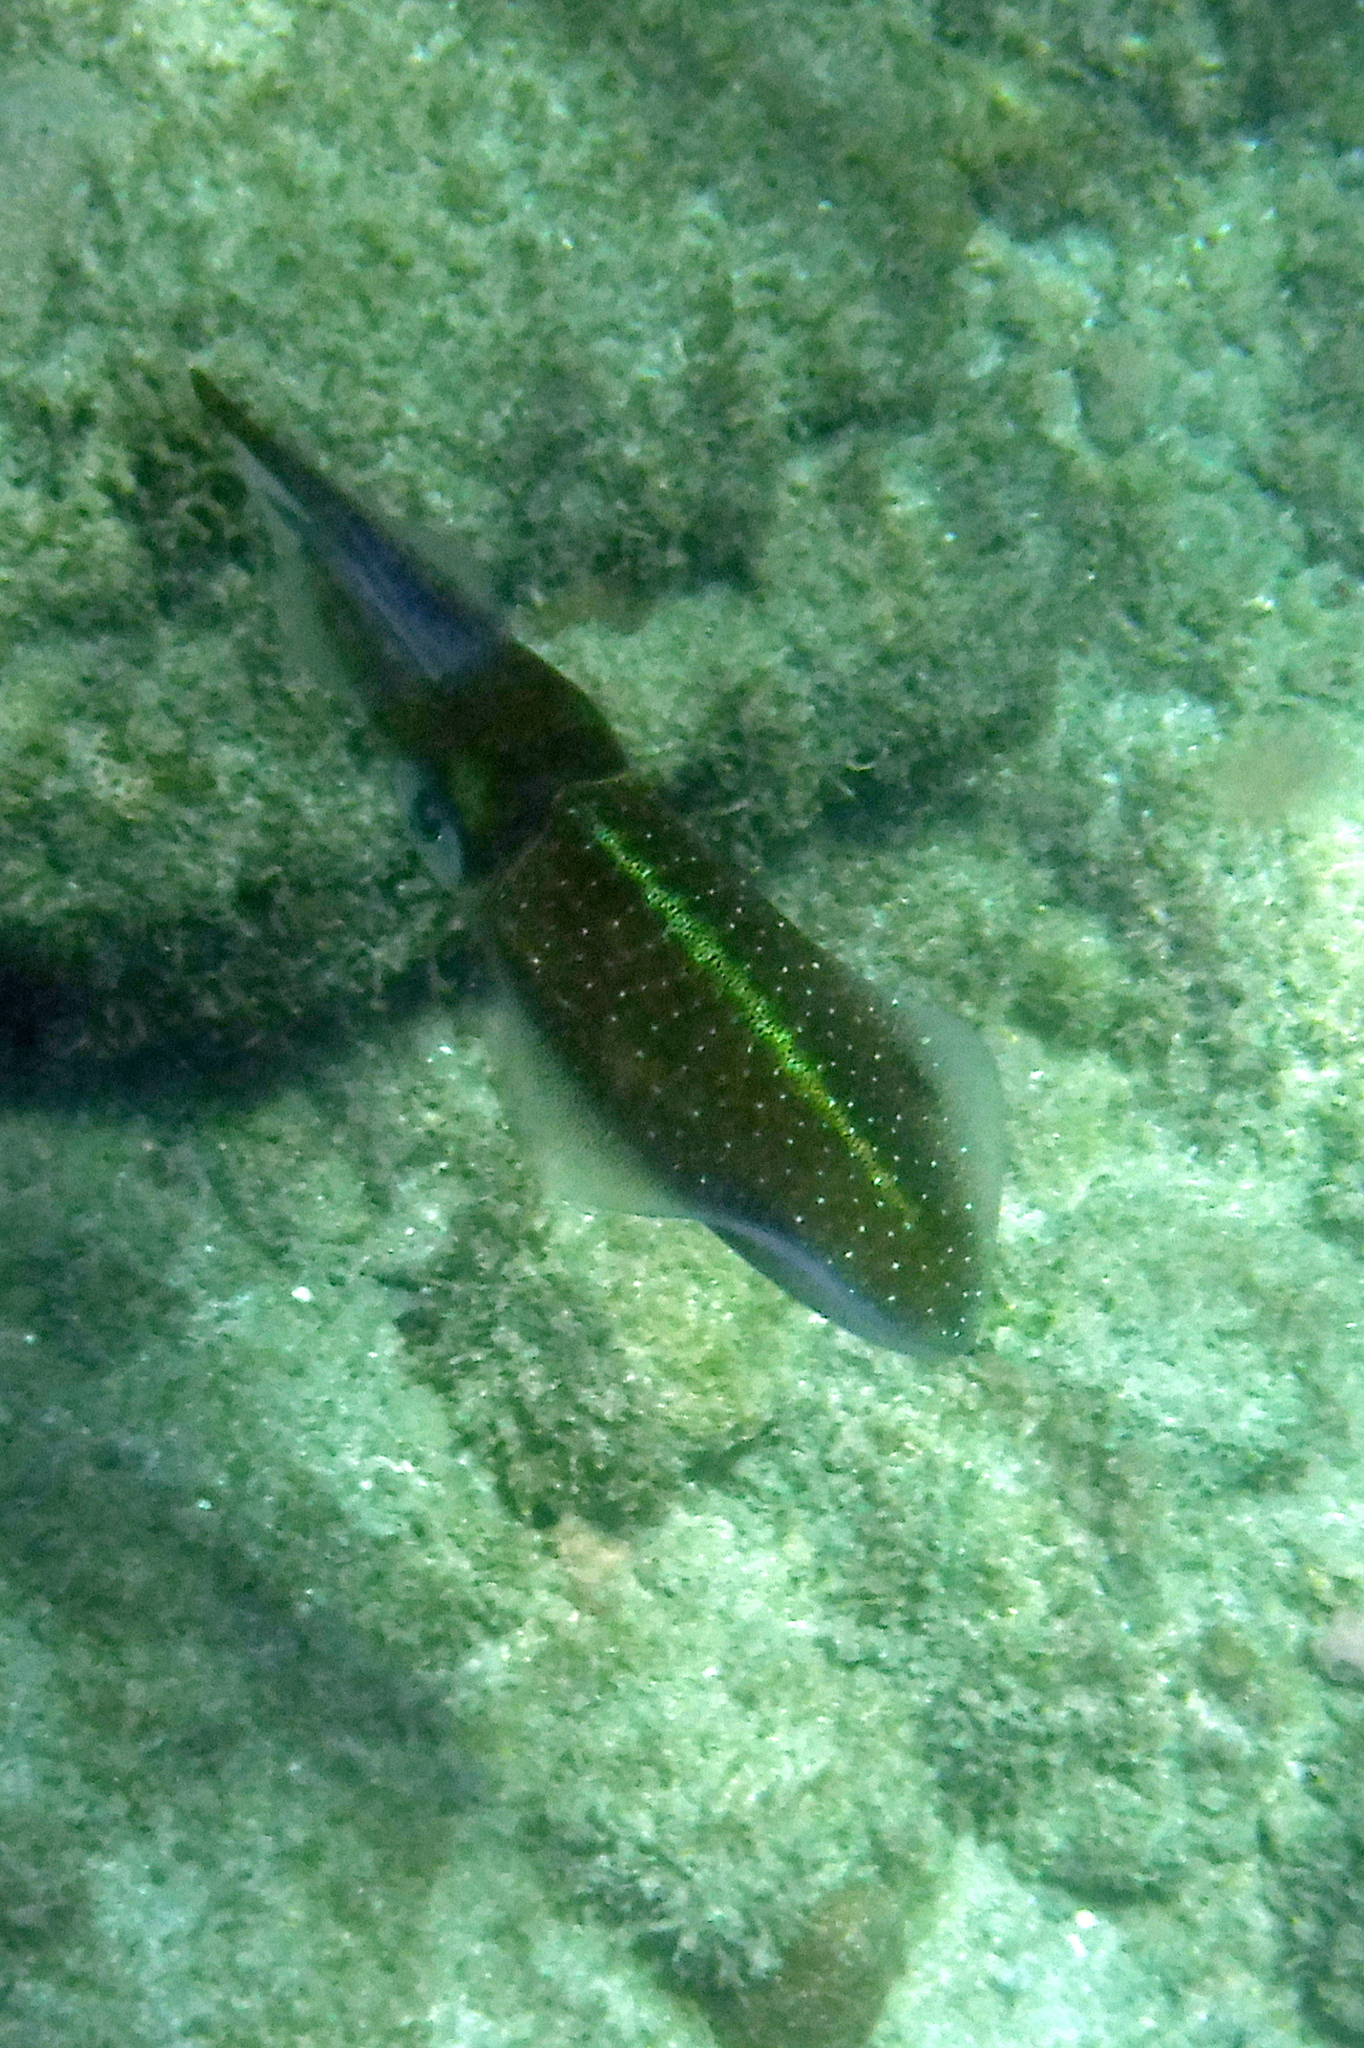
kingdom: Animalia
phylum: Mollusca
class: Cephalopoda
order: Myopsida
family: Loliginidae
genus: Sepioteuthis
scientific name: Sepioteuthis sepioidea
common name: Caribbean reef squid
